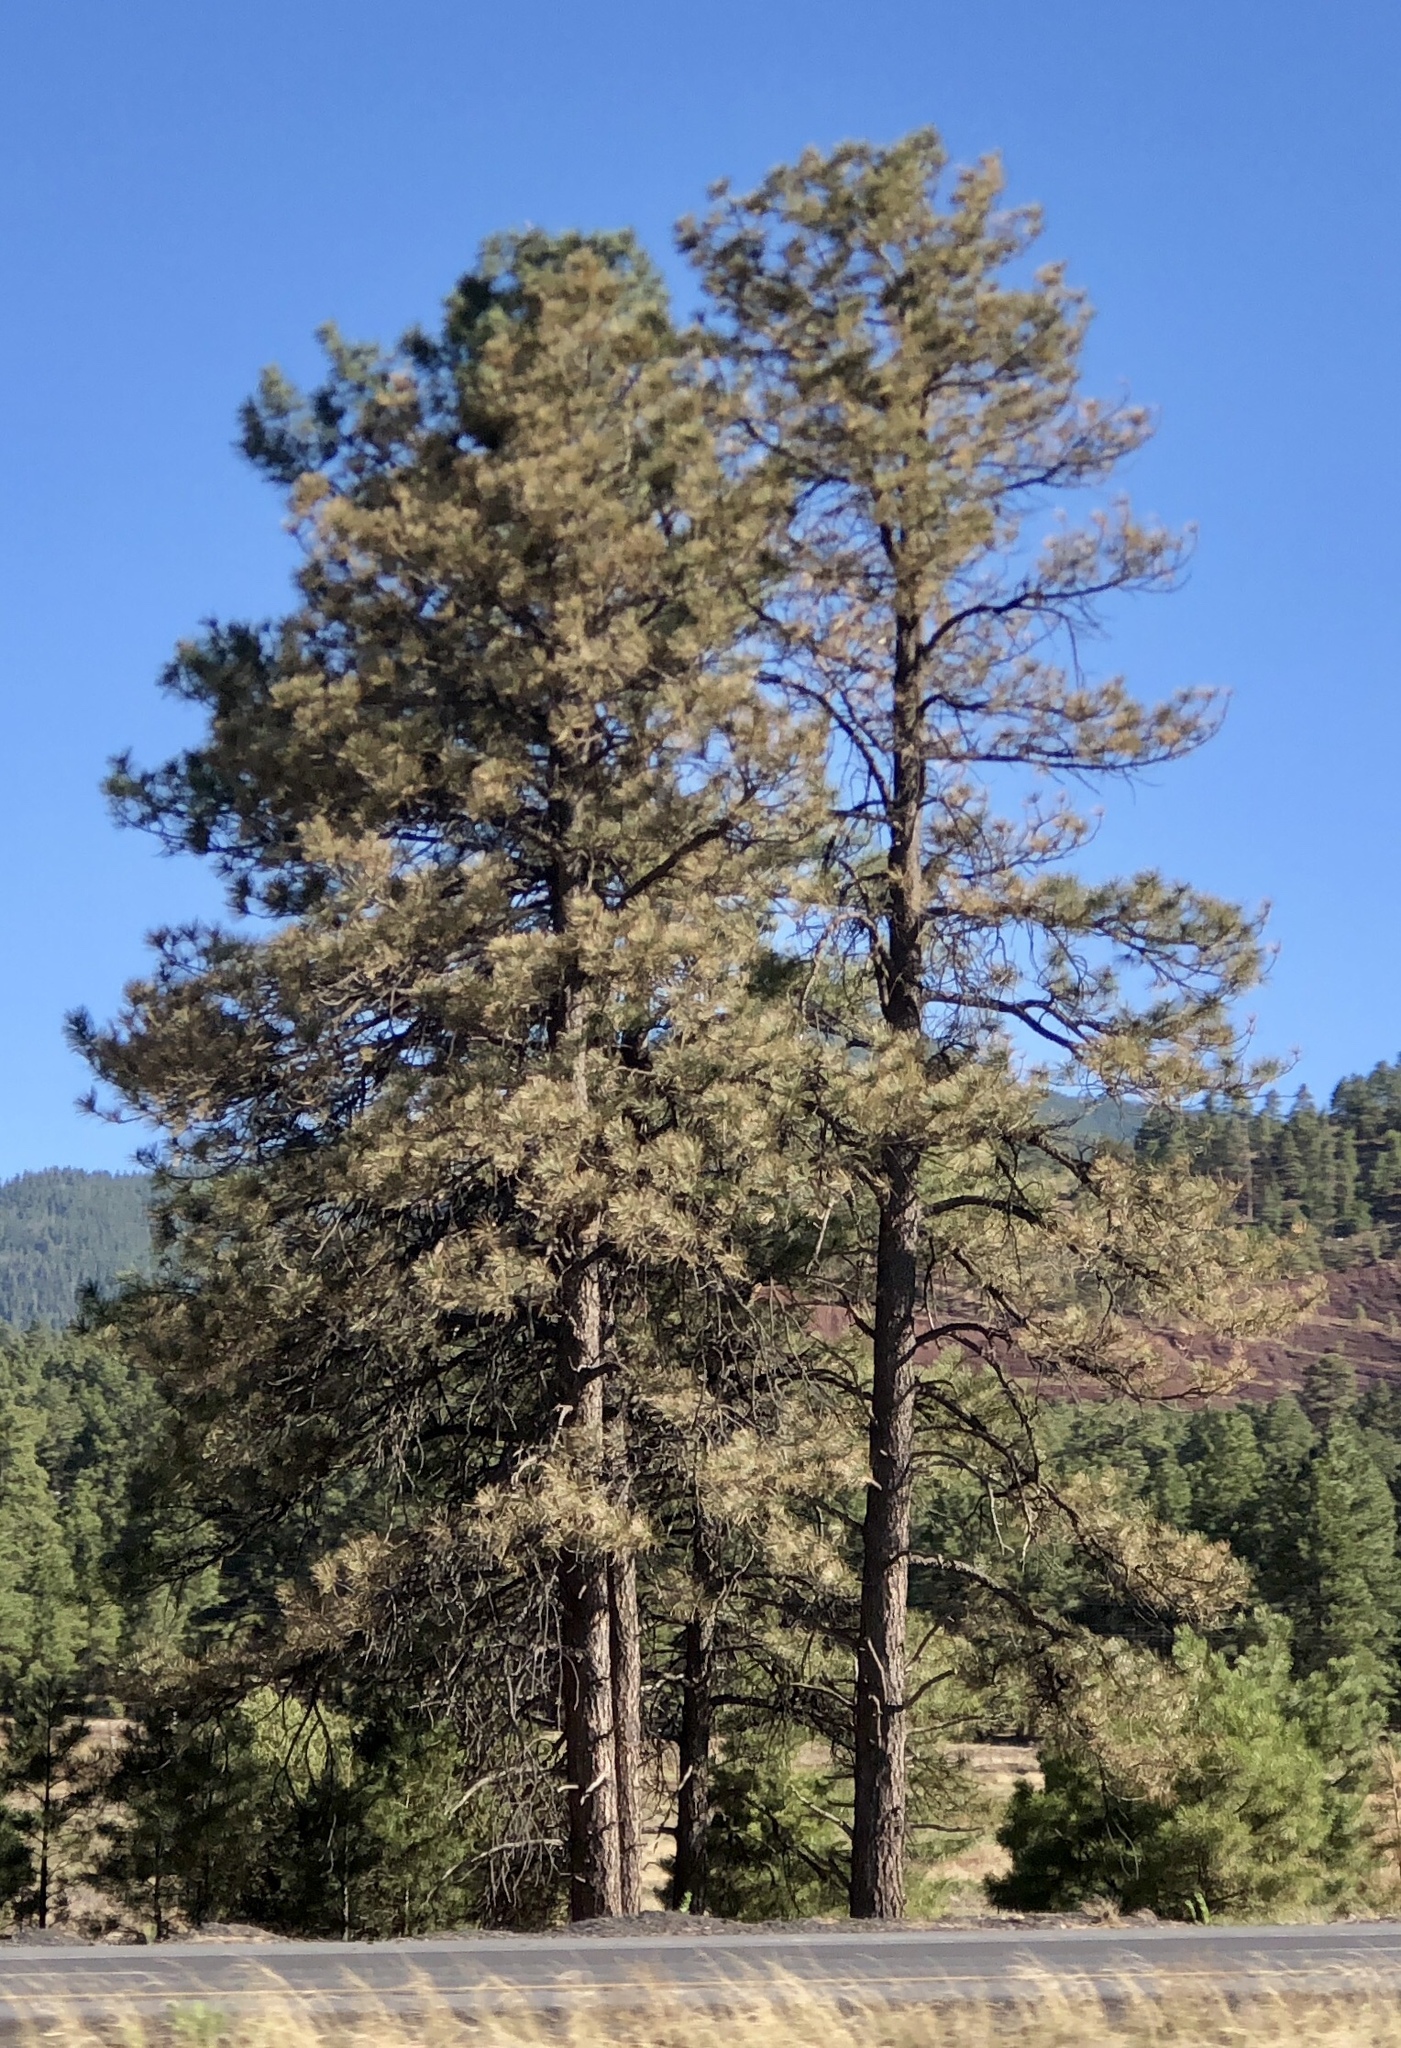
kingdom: Plantae
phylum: Tracheophyta
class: Pinopsida
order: Pinales
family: Pinaceae
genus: Pinus
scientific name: Pinus ponderosa
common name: Western yellow-pine
